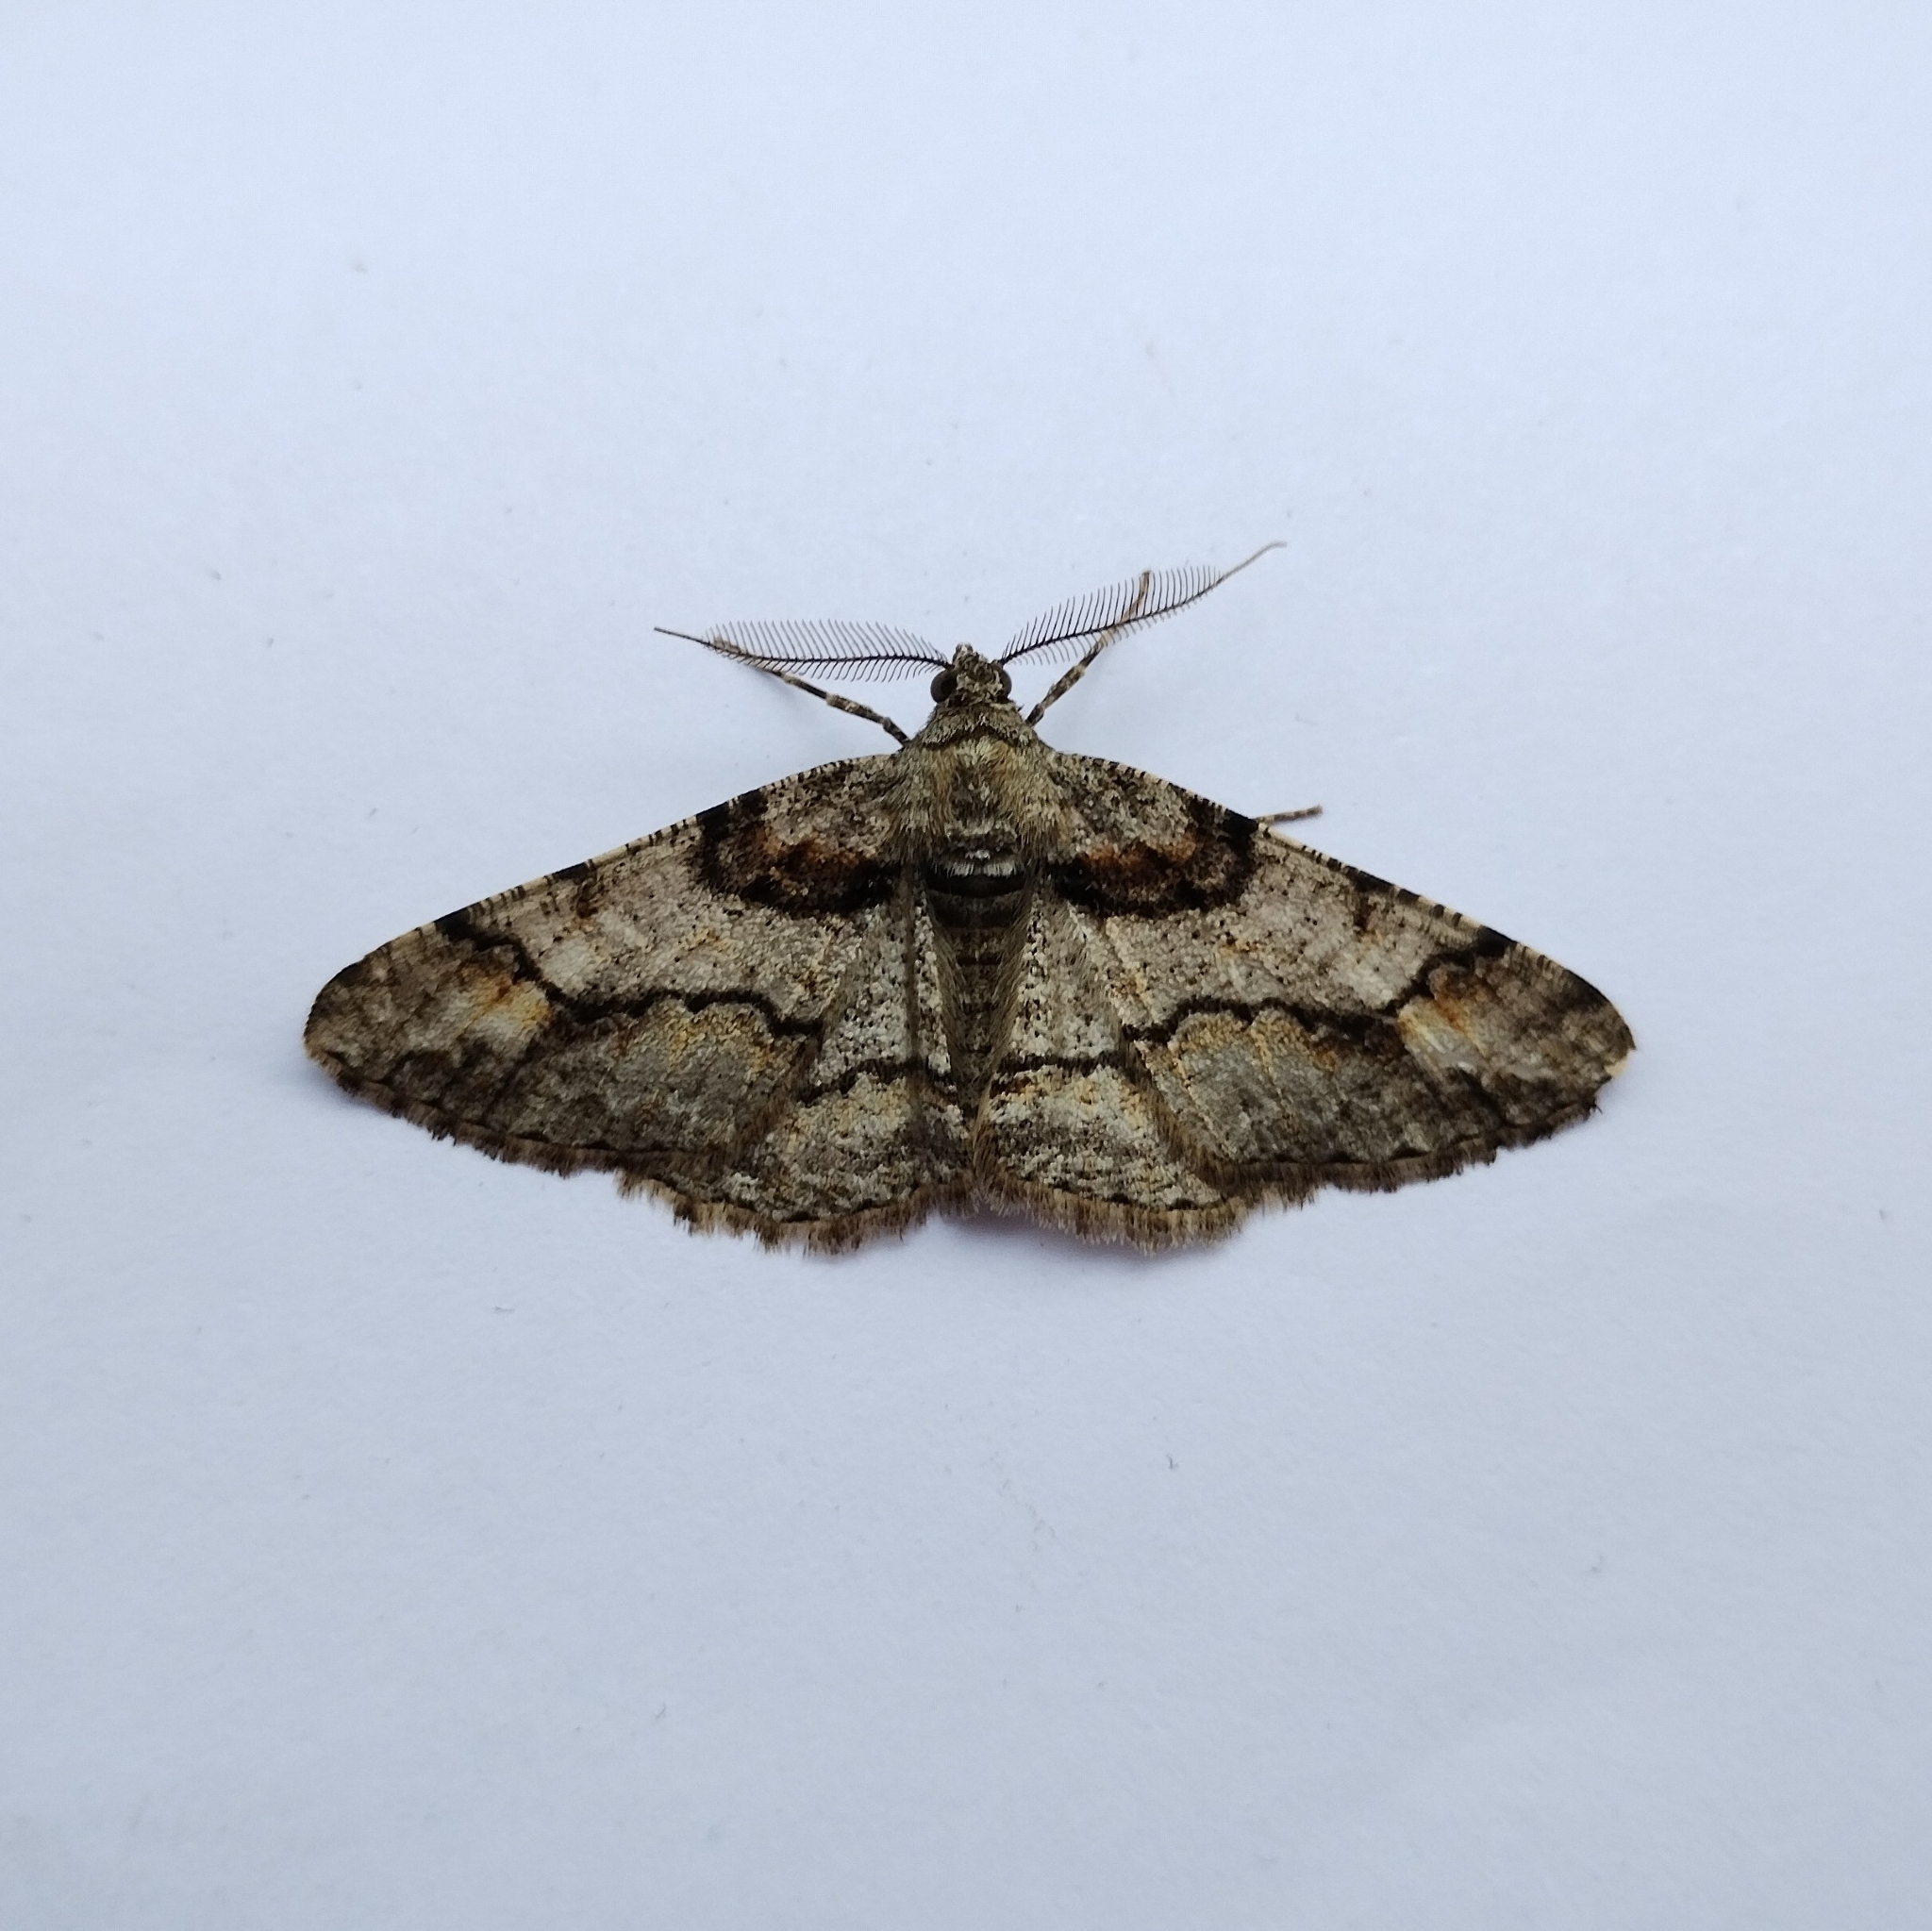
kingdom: Animalia
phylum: Arthropoda
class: Insecta
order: Lepidoptera
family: Geometridae
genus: Cleora
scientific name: Cleora cinctaria
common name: Ringed carpet
